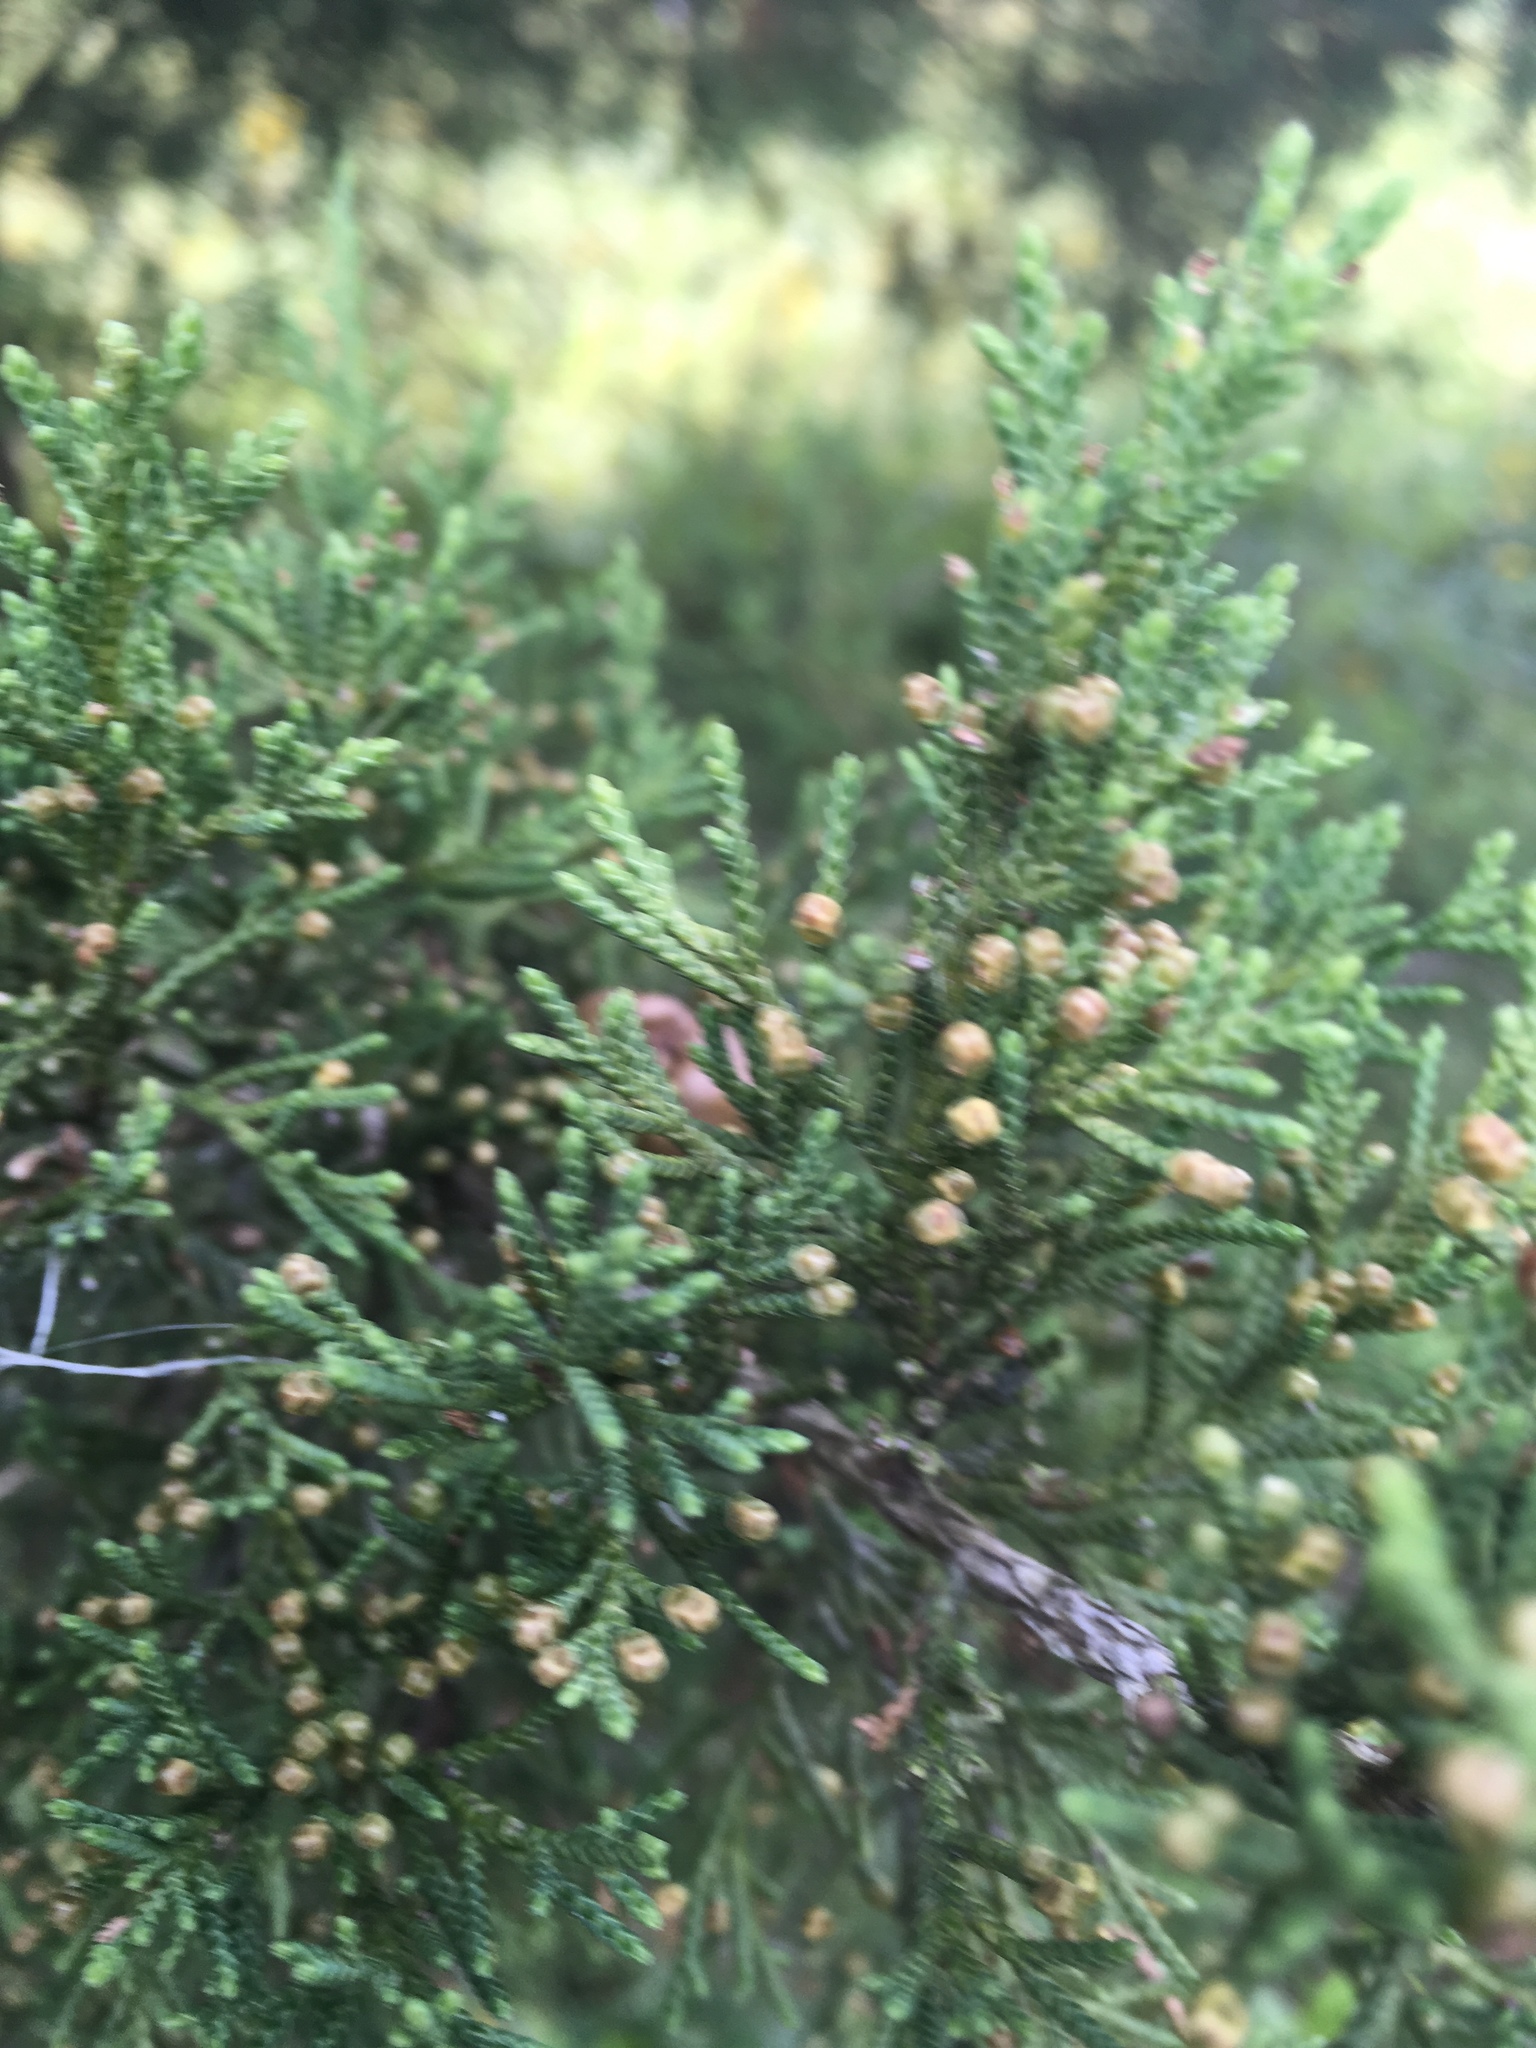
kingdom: Plantae
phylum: Tracheophyta
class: Pinopsida
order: Pinales
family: Cupressaceae
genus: Juniperus
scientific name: Juniperus virginiana
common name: Red juniper
